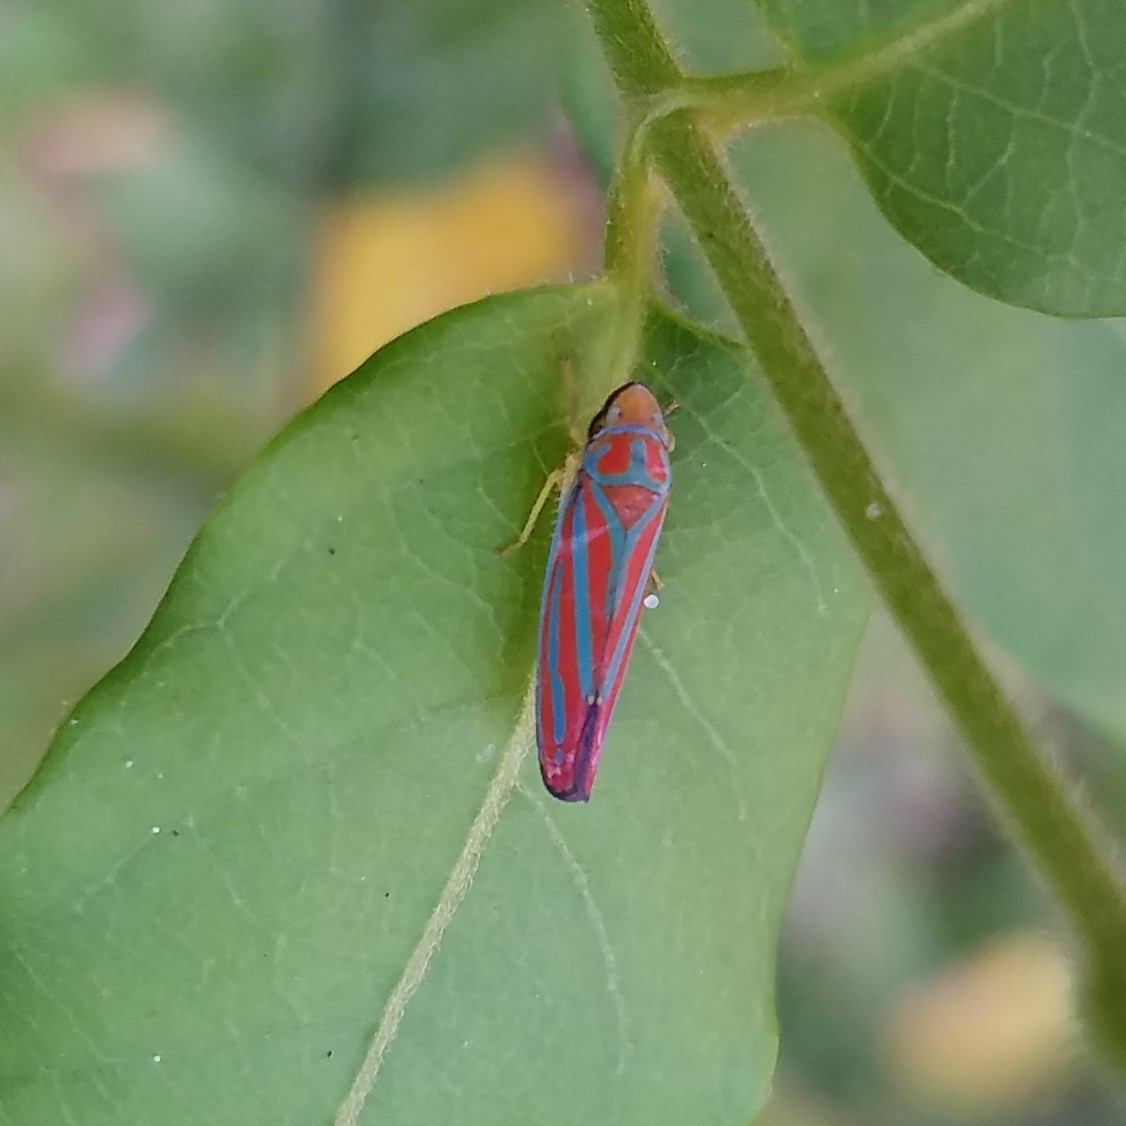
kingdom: Animalia
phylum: Arthropoda
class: Insecta
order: Hemiptera
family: Cicadellidae
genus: Graphocephala
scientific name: Graphocephala coccinea
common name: Candy-striped leafhopper
